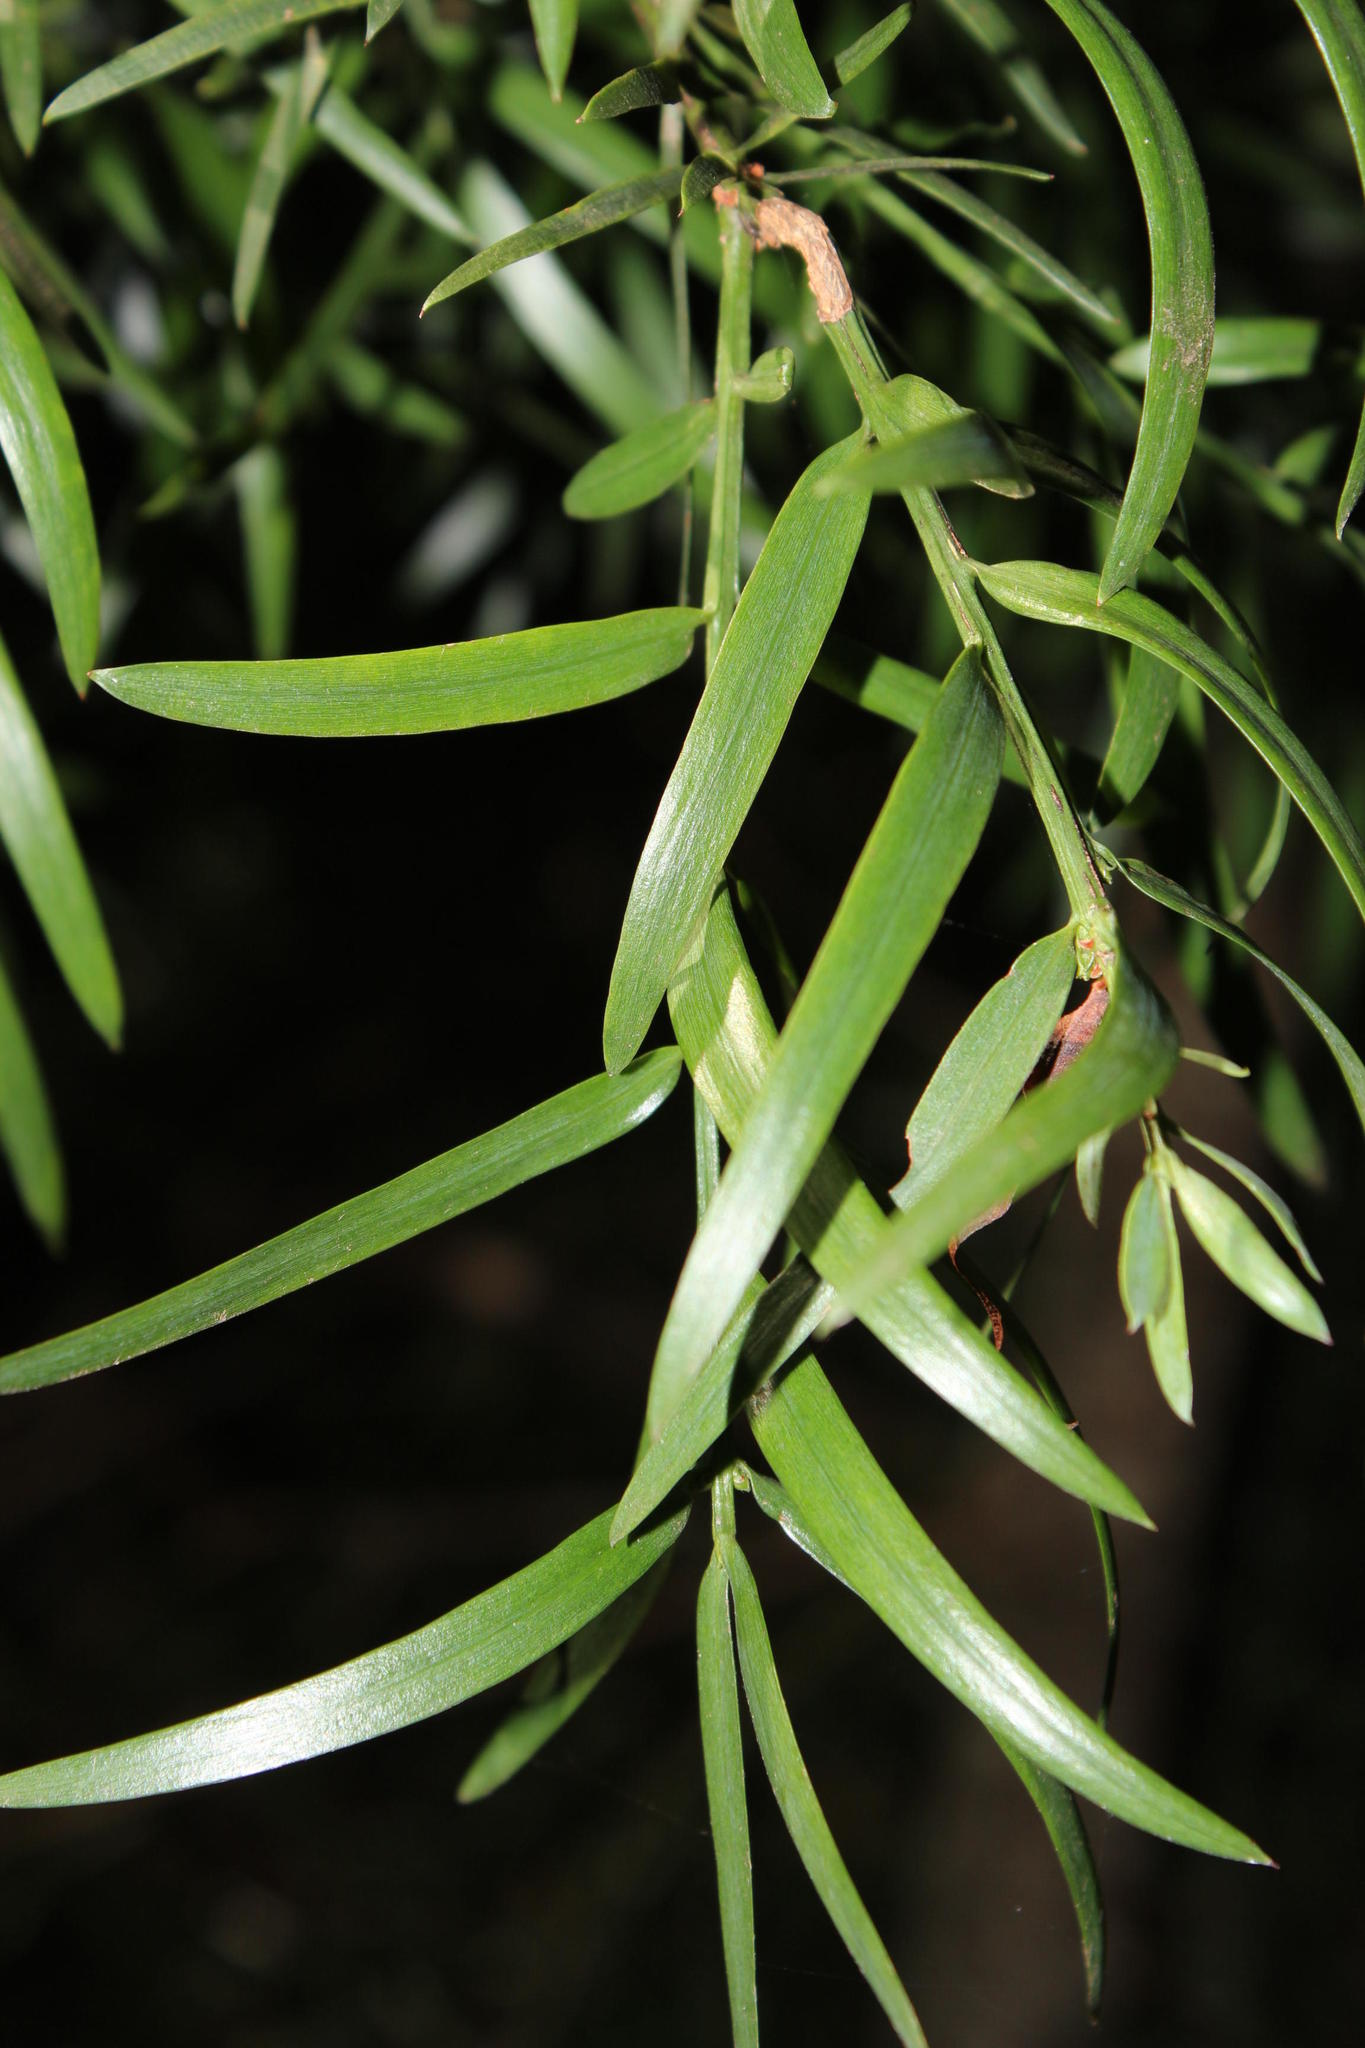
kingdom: Plantae
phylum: Tracheophyta
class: Pinopsida
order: Pinales
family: Podocarpaceae
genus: Afrocarpus
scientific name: Afrocarpus falcatus
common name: Bastard yellowwood
